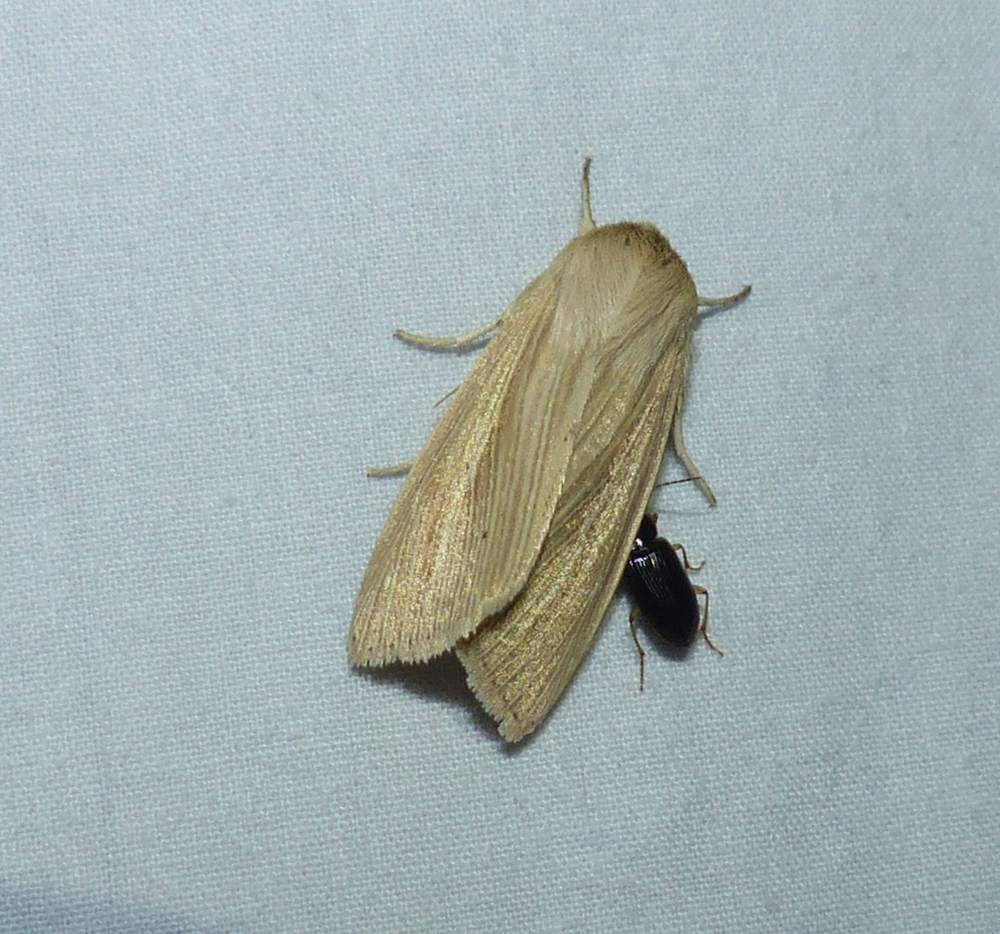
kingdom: Animalia
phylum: Arthropoda
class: Insecta
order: Lepidoptera
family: Noctuidae
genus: Mythimna
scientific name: Mythimna oxygala
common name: Lesser wainscot
